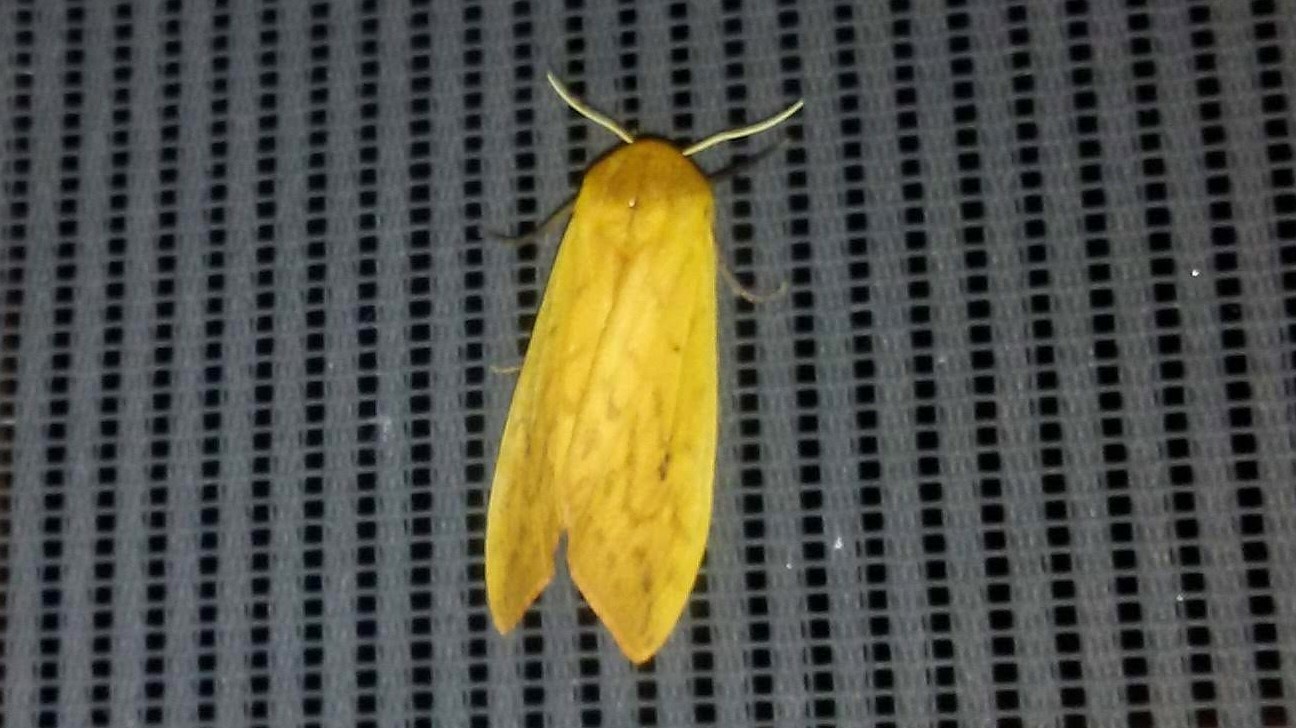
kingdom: Animalia
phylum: Arthropoda
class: Insecta
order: Lepidoptera
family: Erebidae
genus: Pyrrharctia
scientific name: Pyrrharctia isabella
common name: Isabella tiger moth
